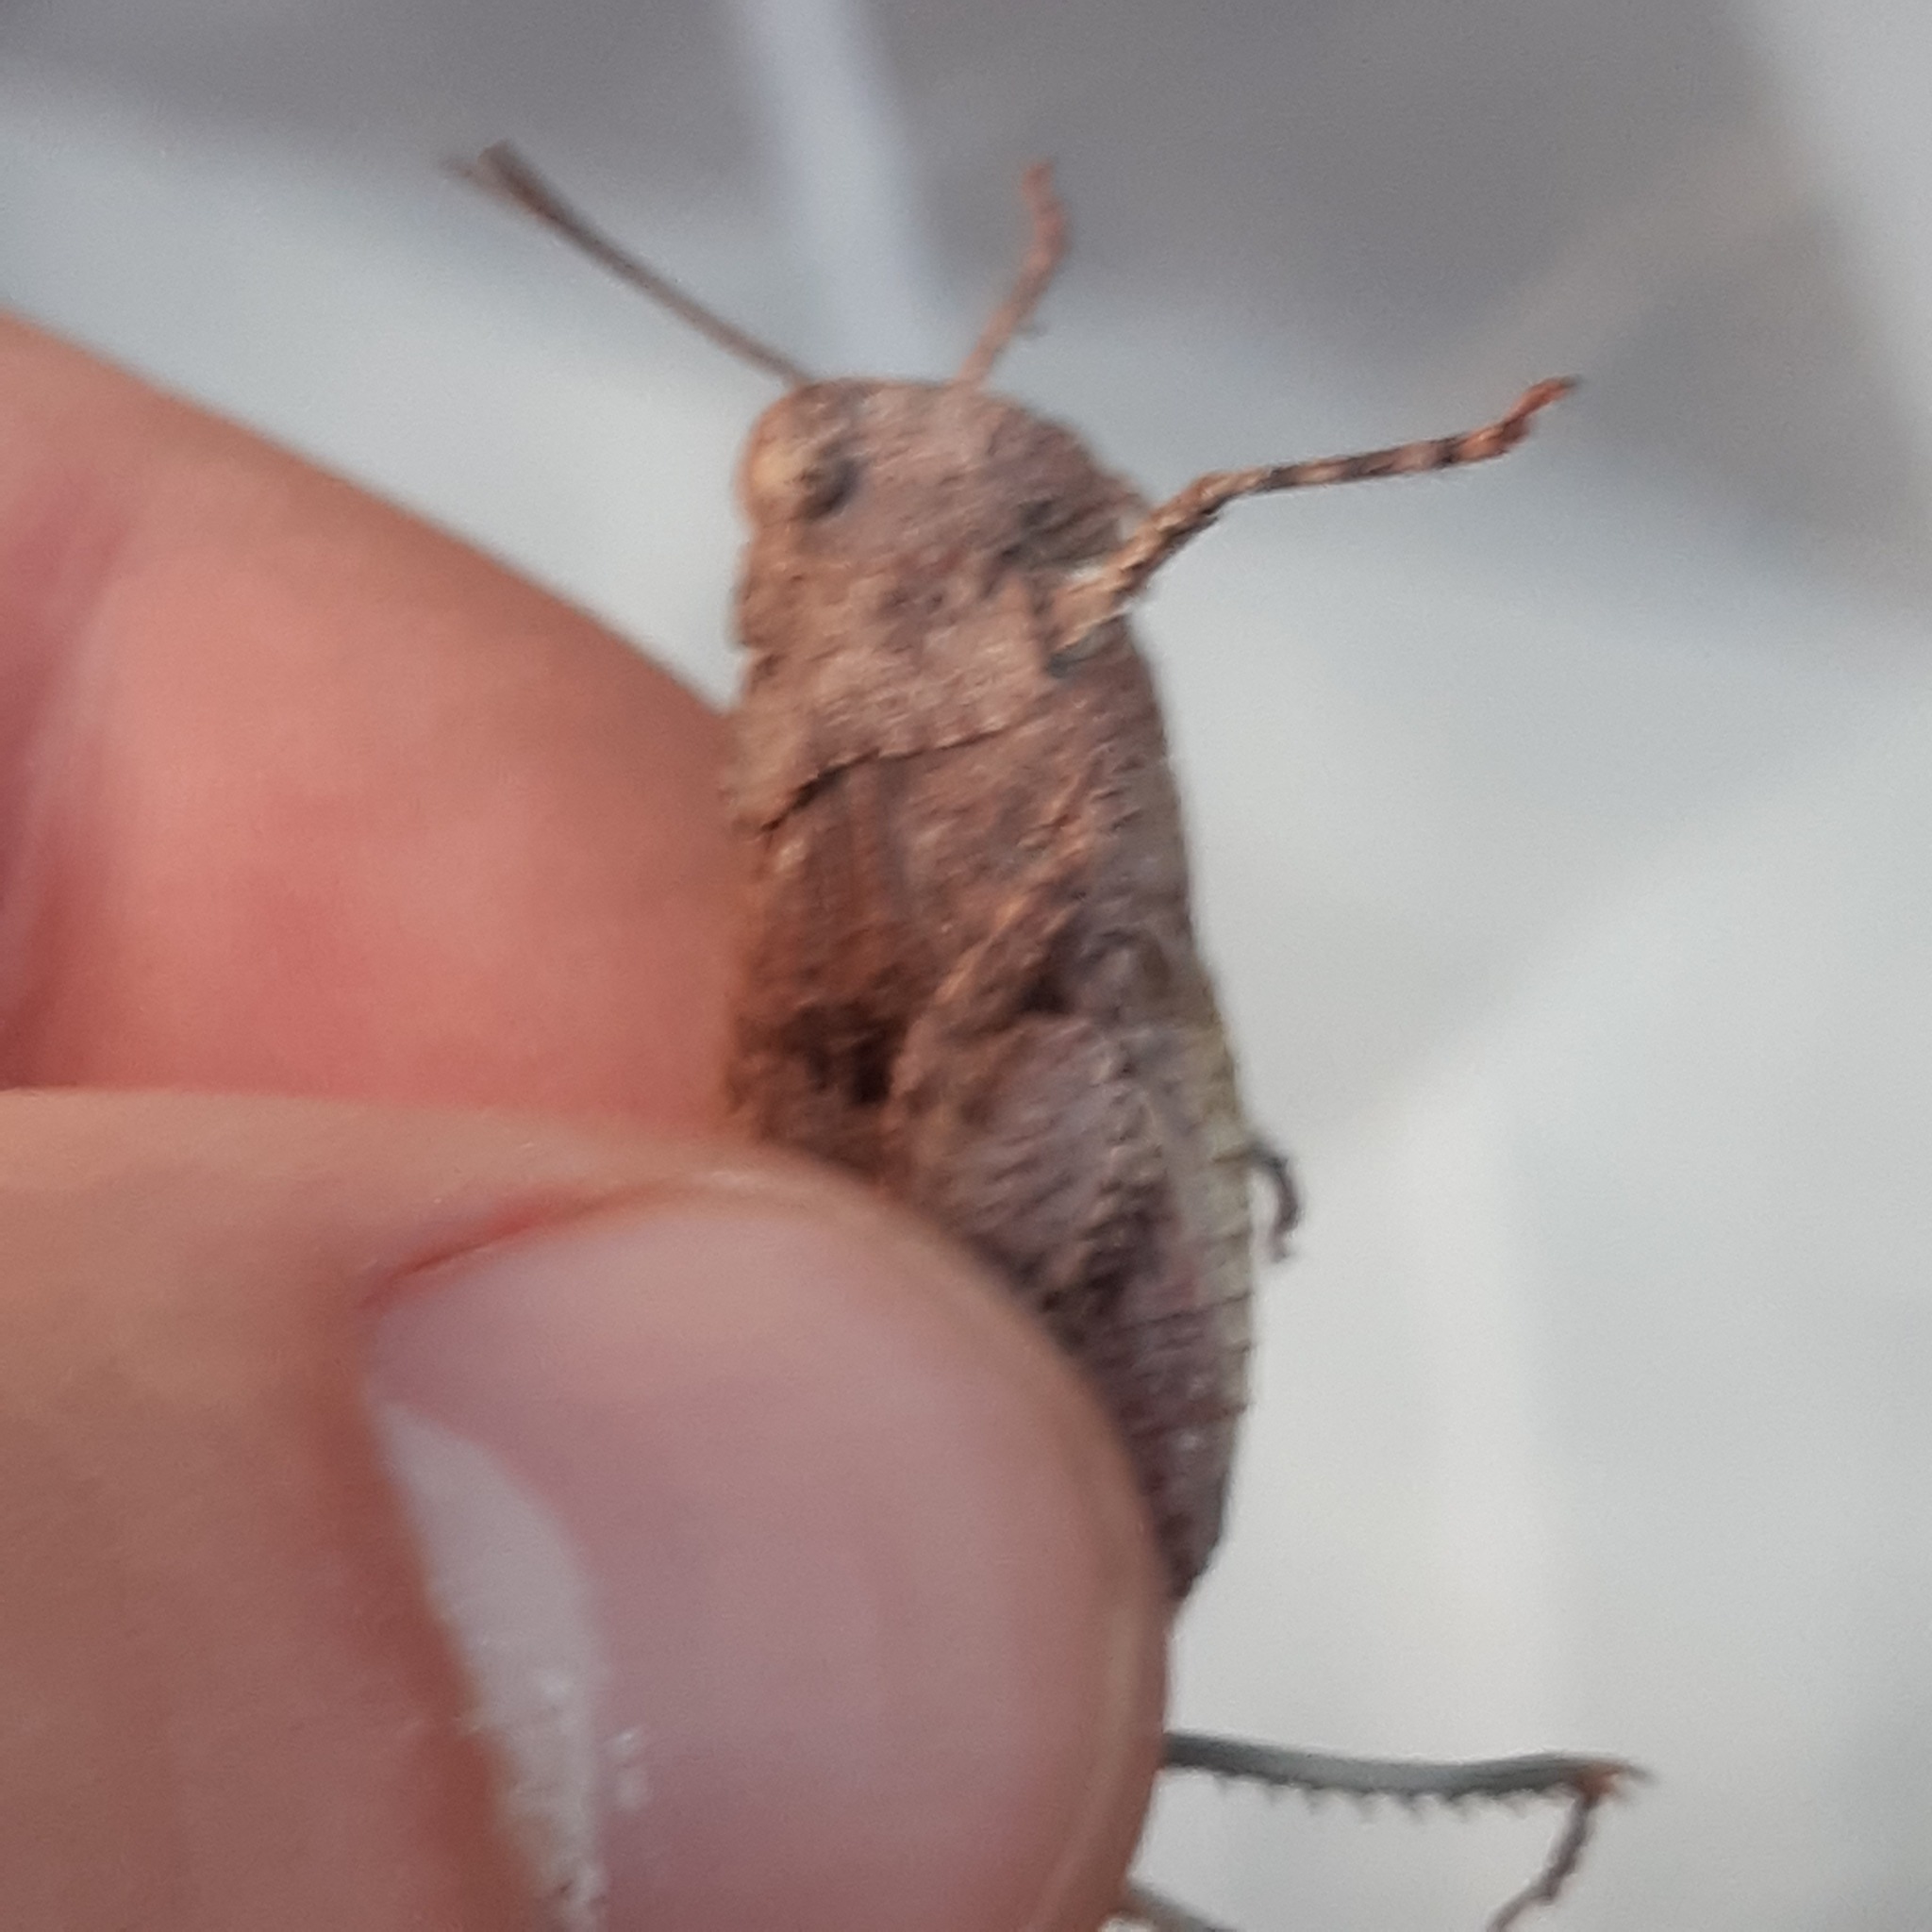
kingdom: Animalia
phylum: Arthropoda
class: Insecta
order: Orthoptera
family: Acrididae
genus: Oedipoda
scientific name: Oedipoda caerulescens
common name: Blue-winged grasshopper
